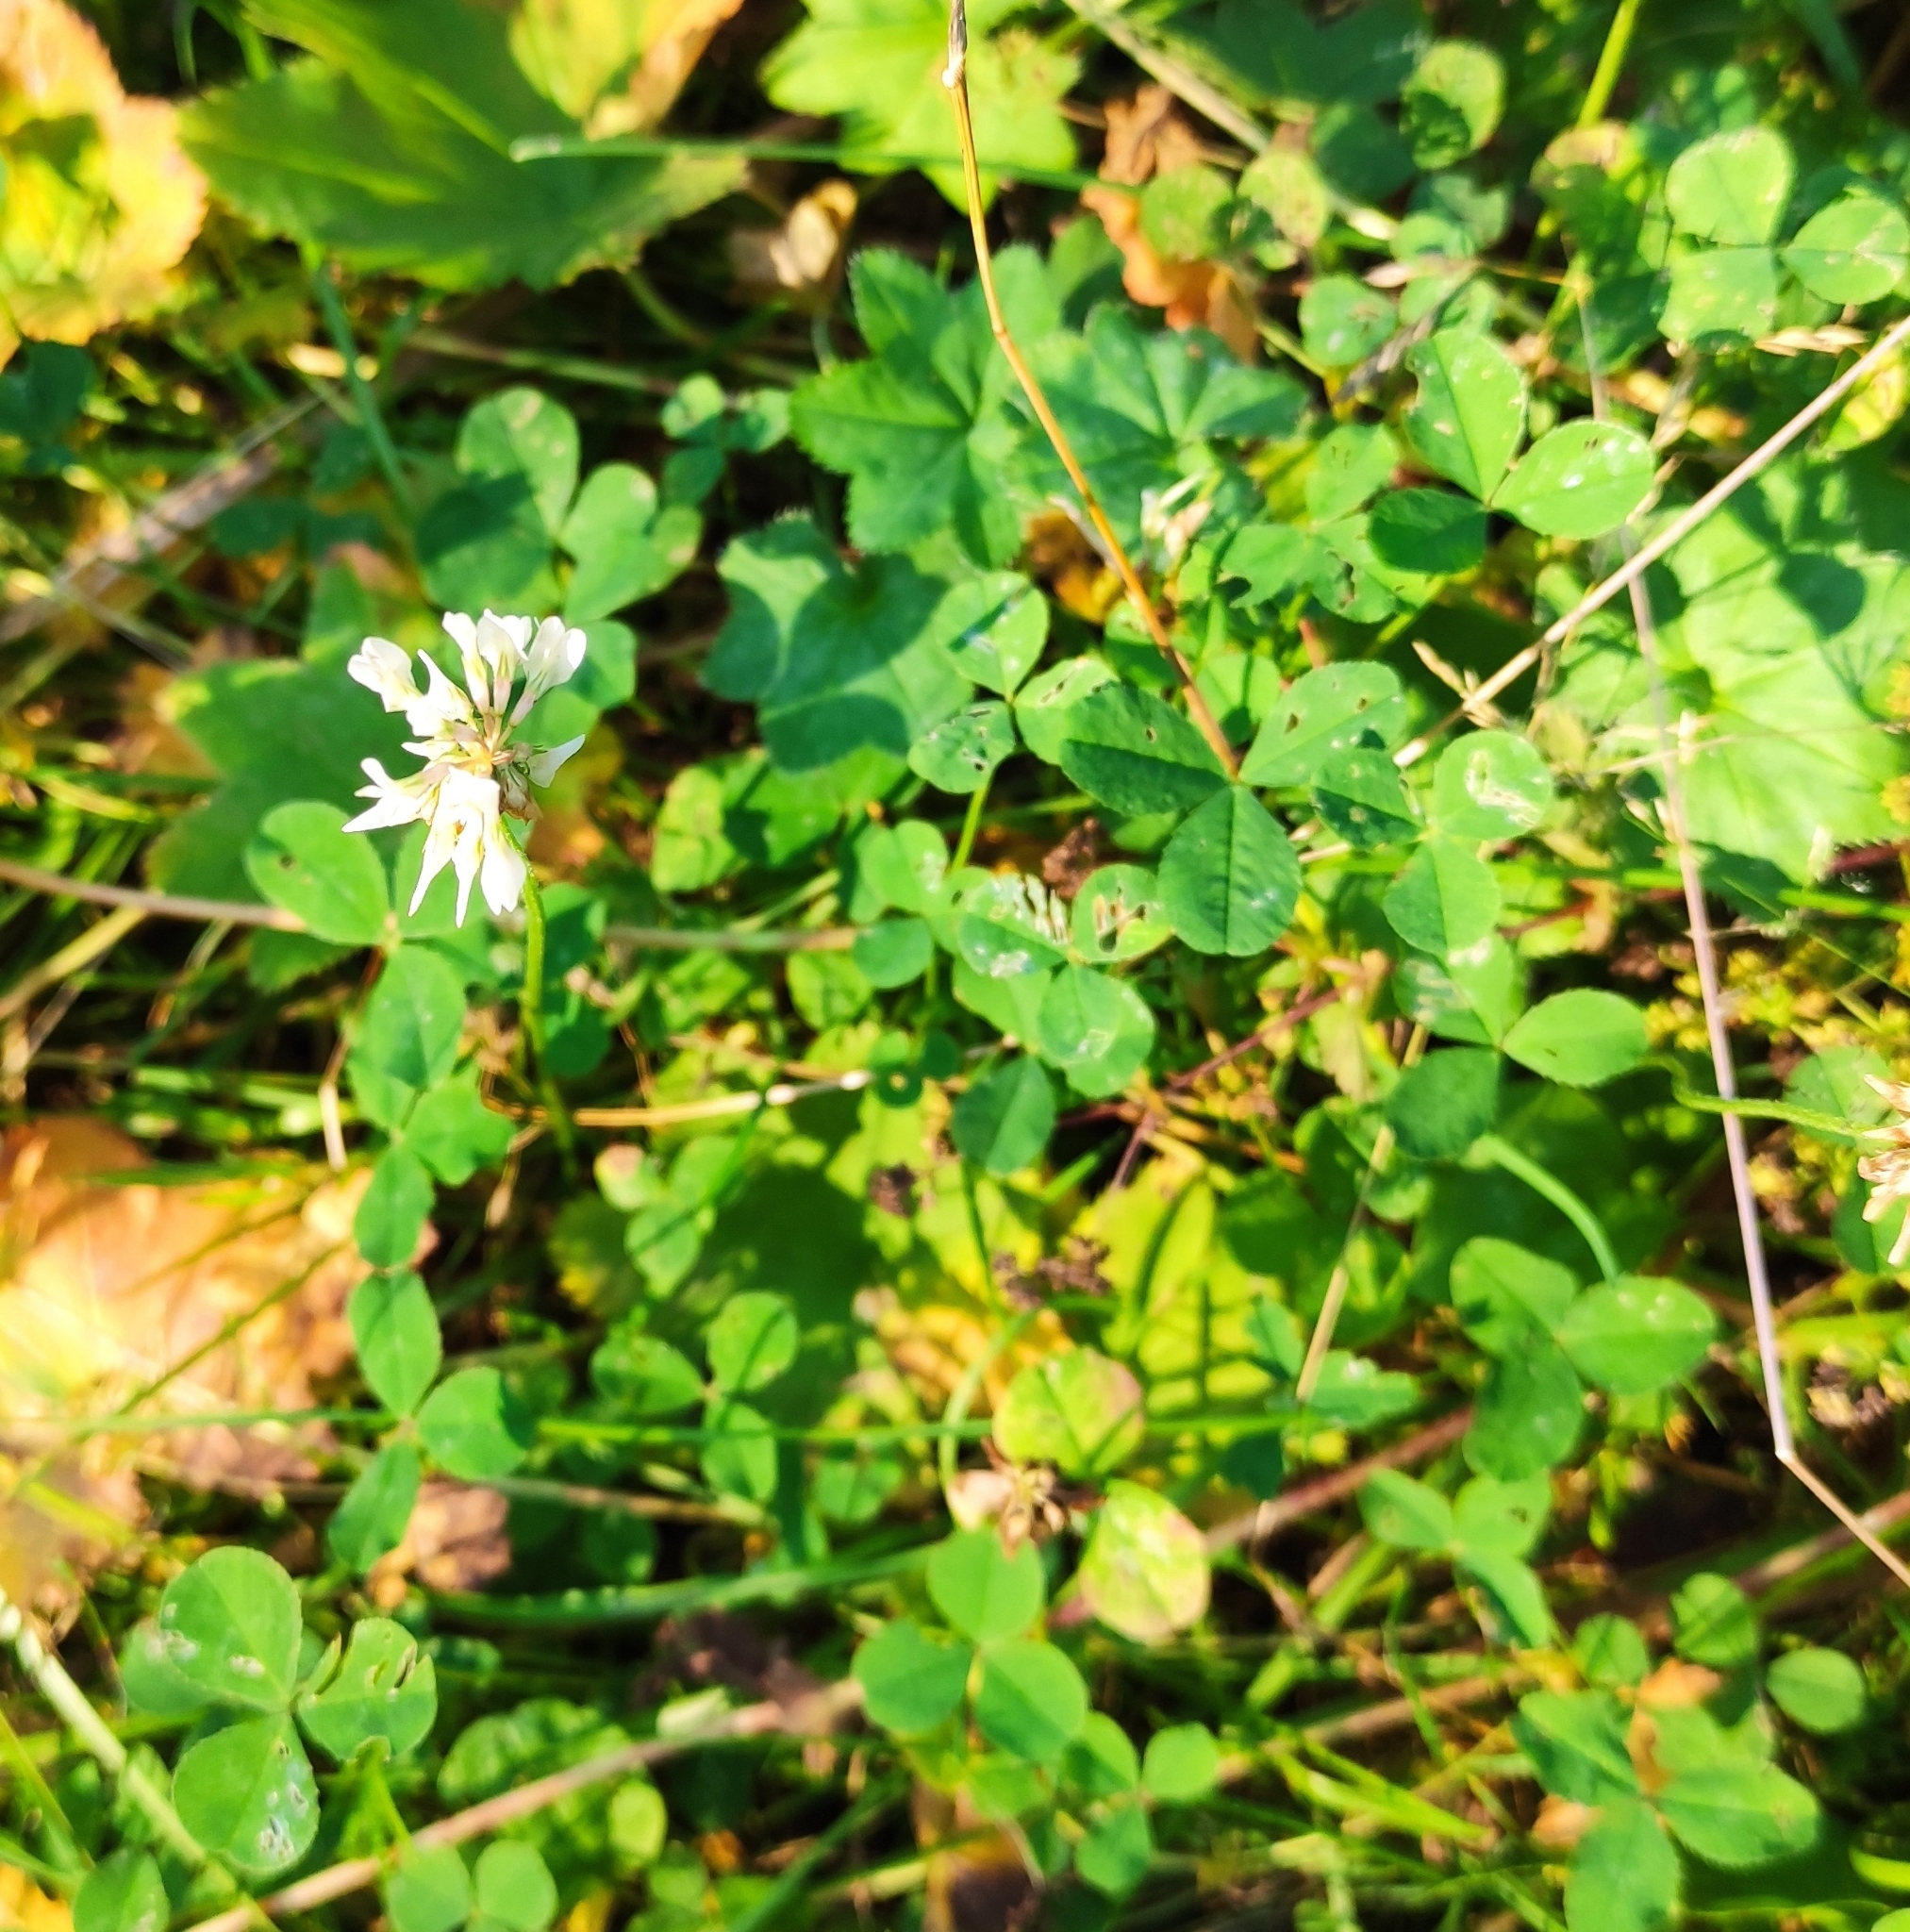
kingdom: Plantae
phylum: Tracheophyta
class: Magnoliopsida
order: Fabales
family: Fabaceae
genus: Trifolium
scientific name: Trifolium repens
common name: White clover
